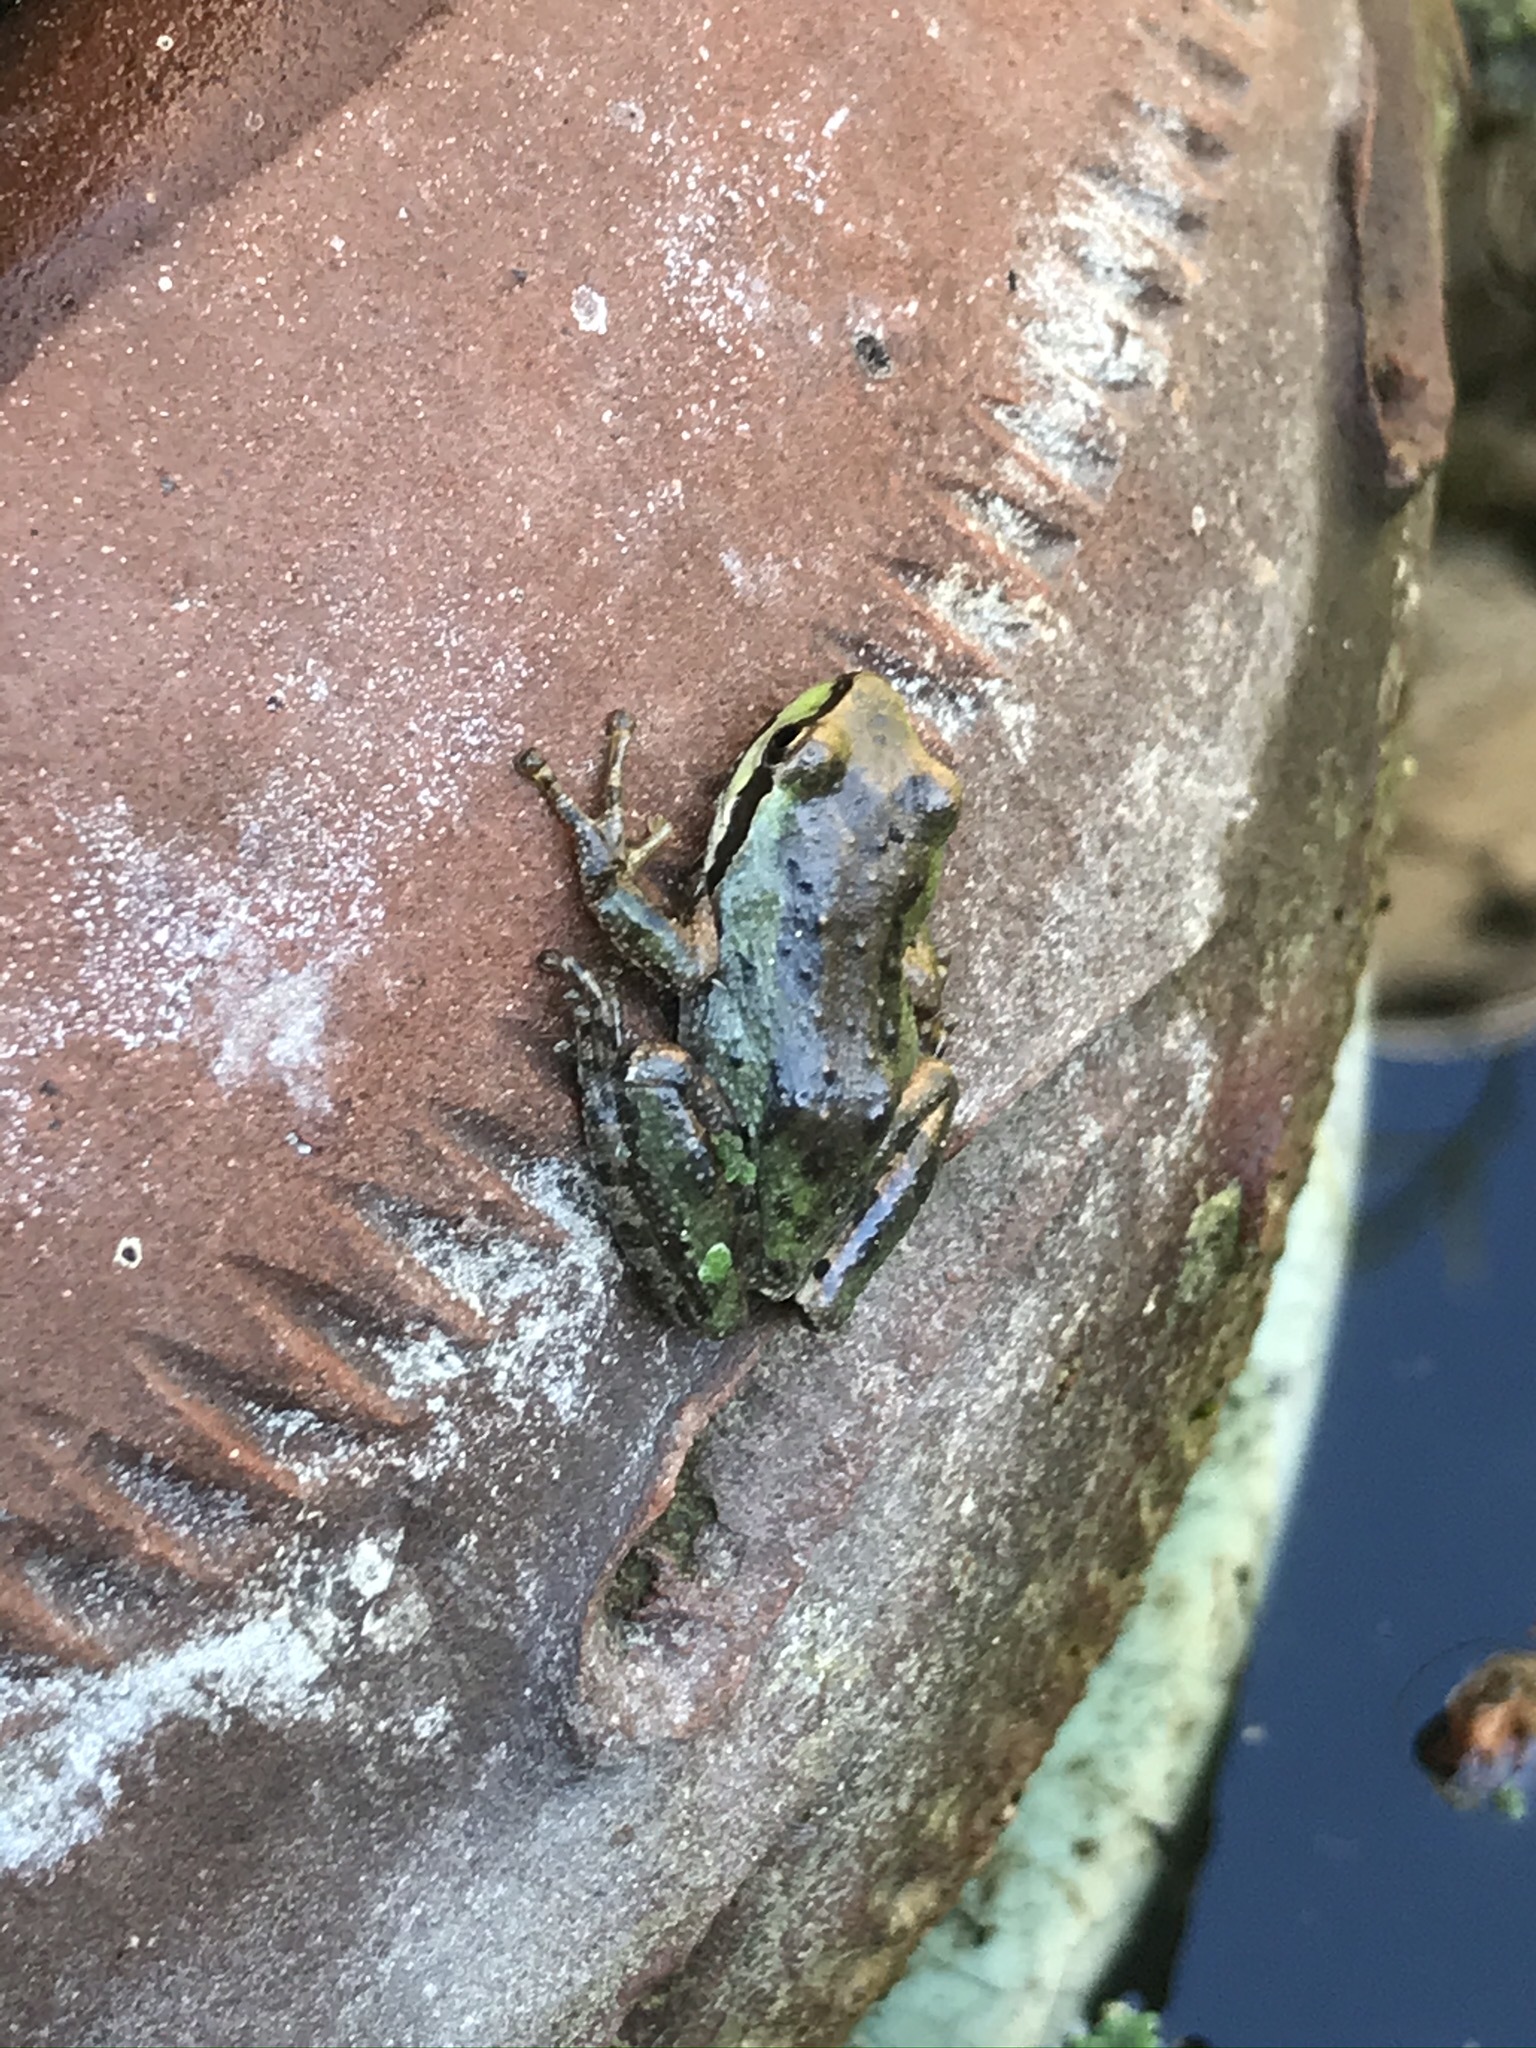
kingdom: Animalia
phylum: Chordata
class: Amphibia
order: Anura
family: Hylidae
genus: Pseudacris
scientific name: Pseudacris regilla
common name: Pacific chorus frog
